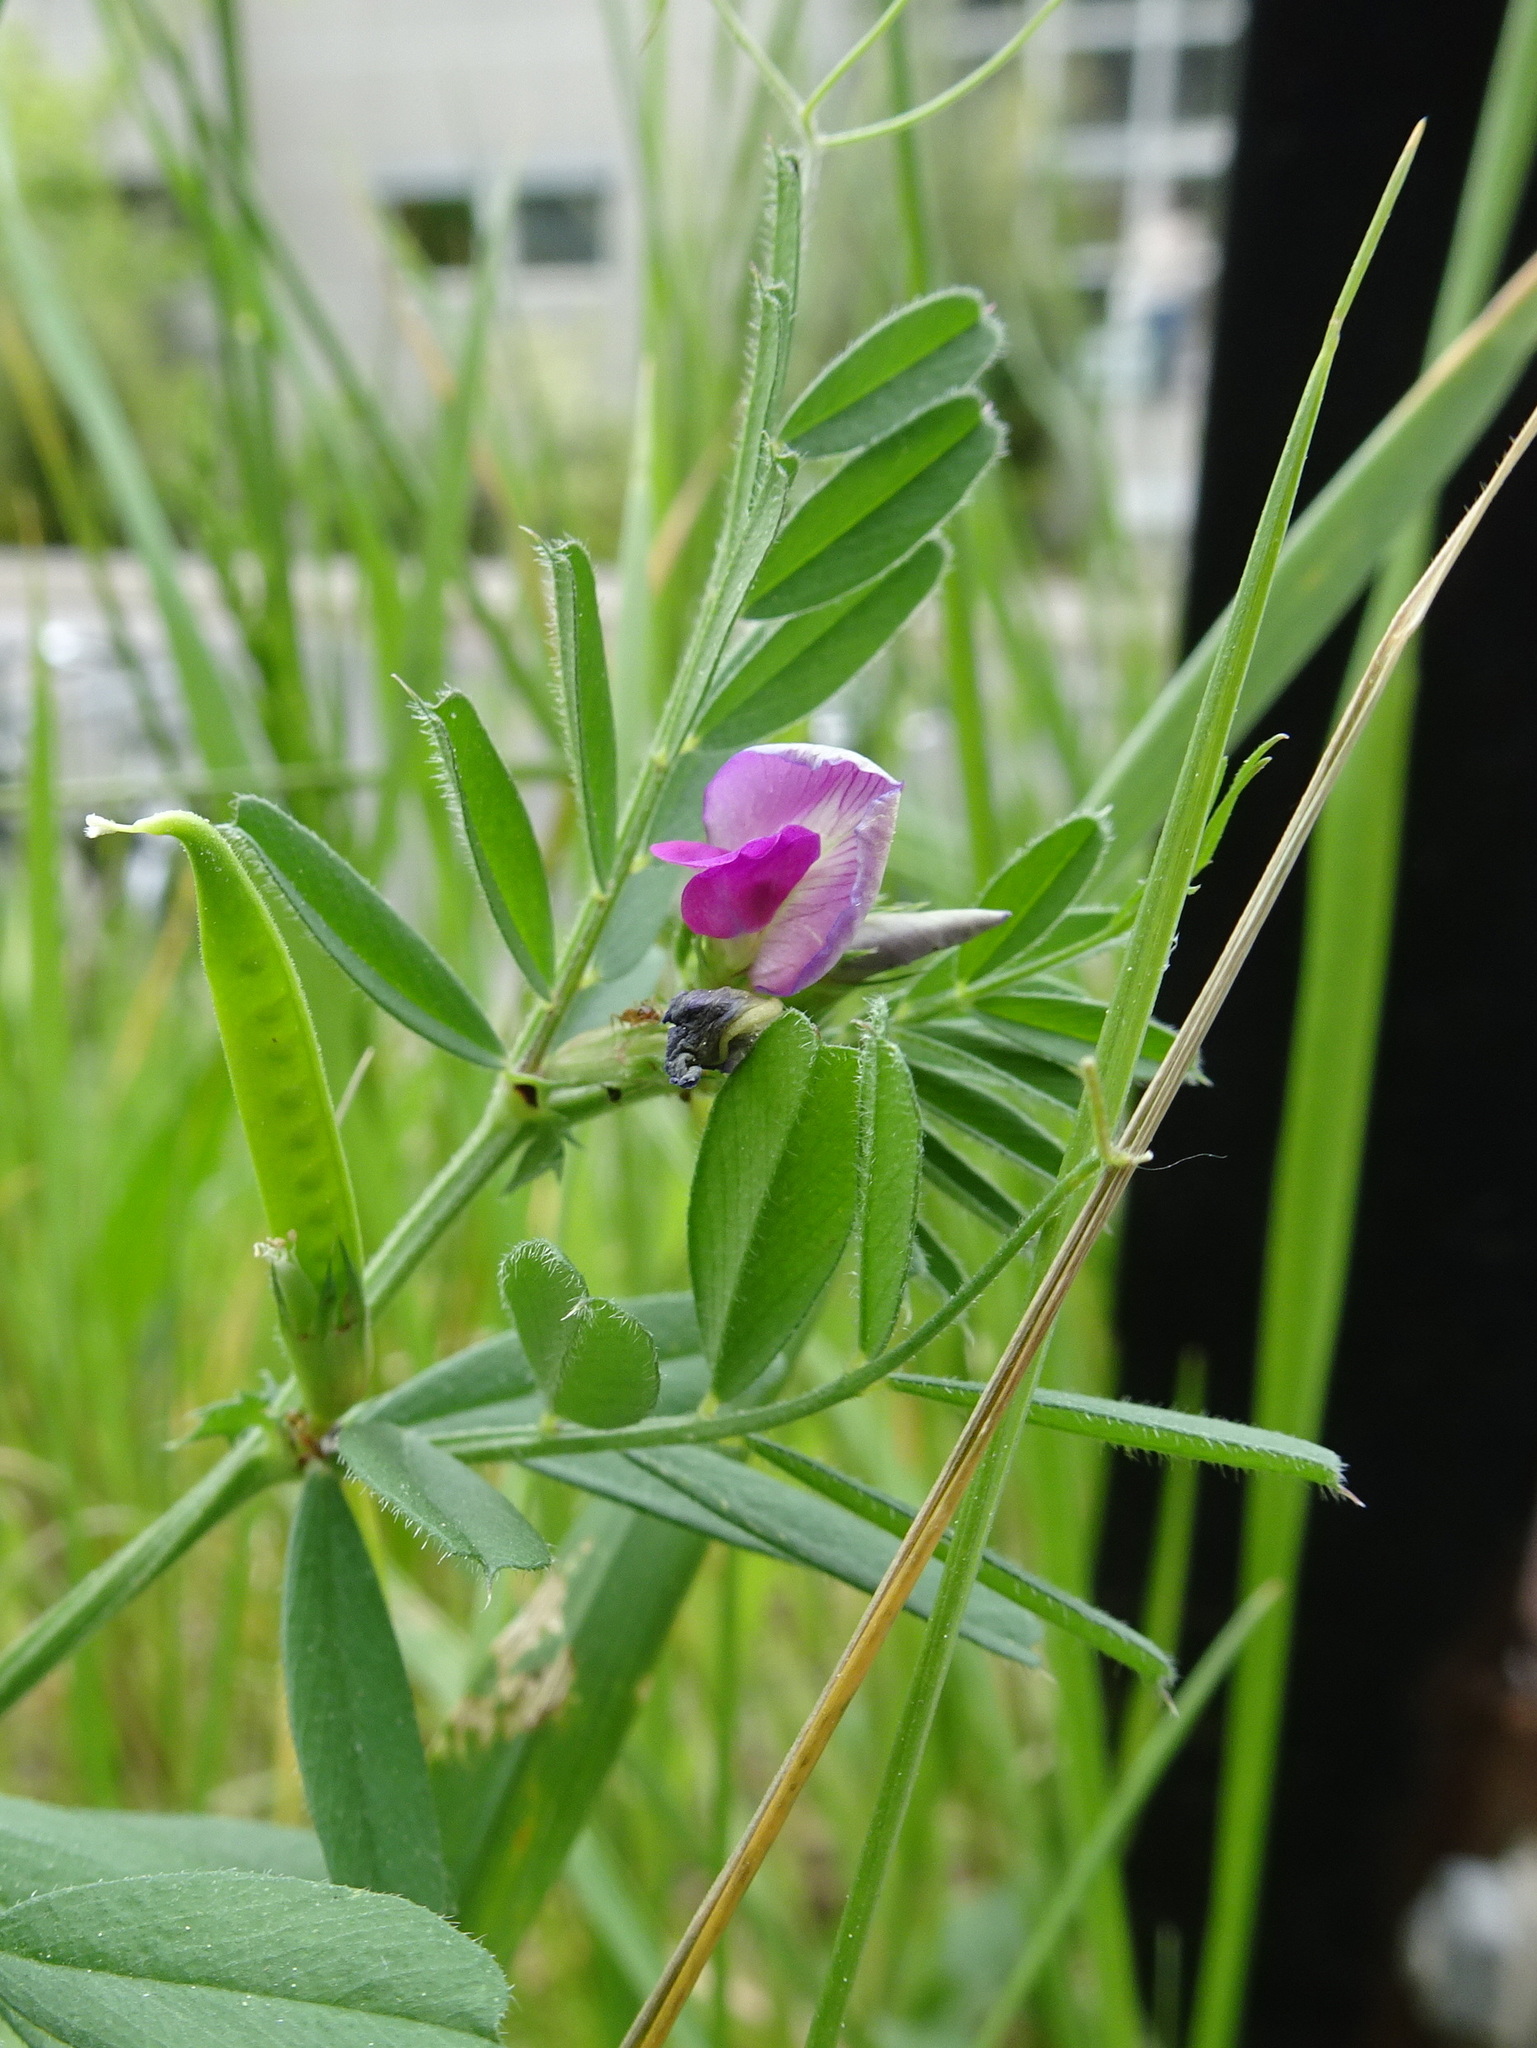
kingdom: Plantae
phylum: Tracheophyta
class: Magnoliopsida
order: Fabales
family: Fabaceae
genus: Vicia
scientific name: Vicia sativa
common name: Garden vetch
